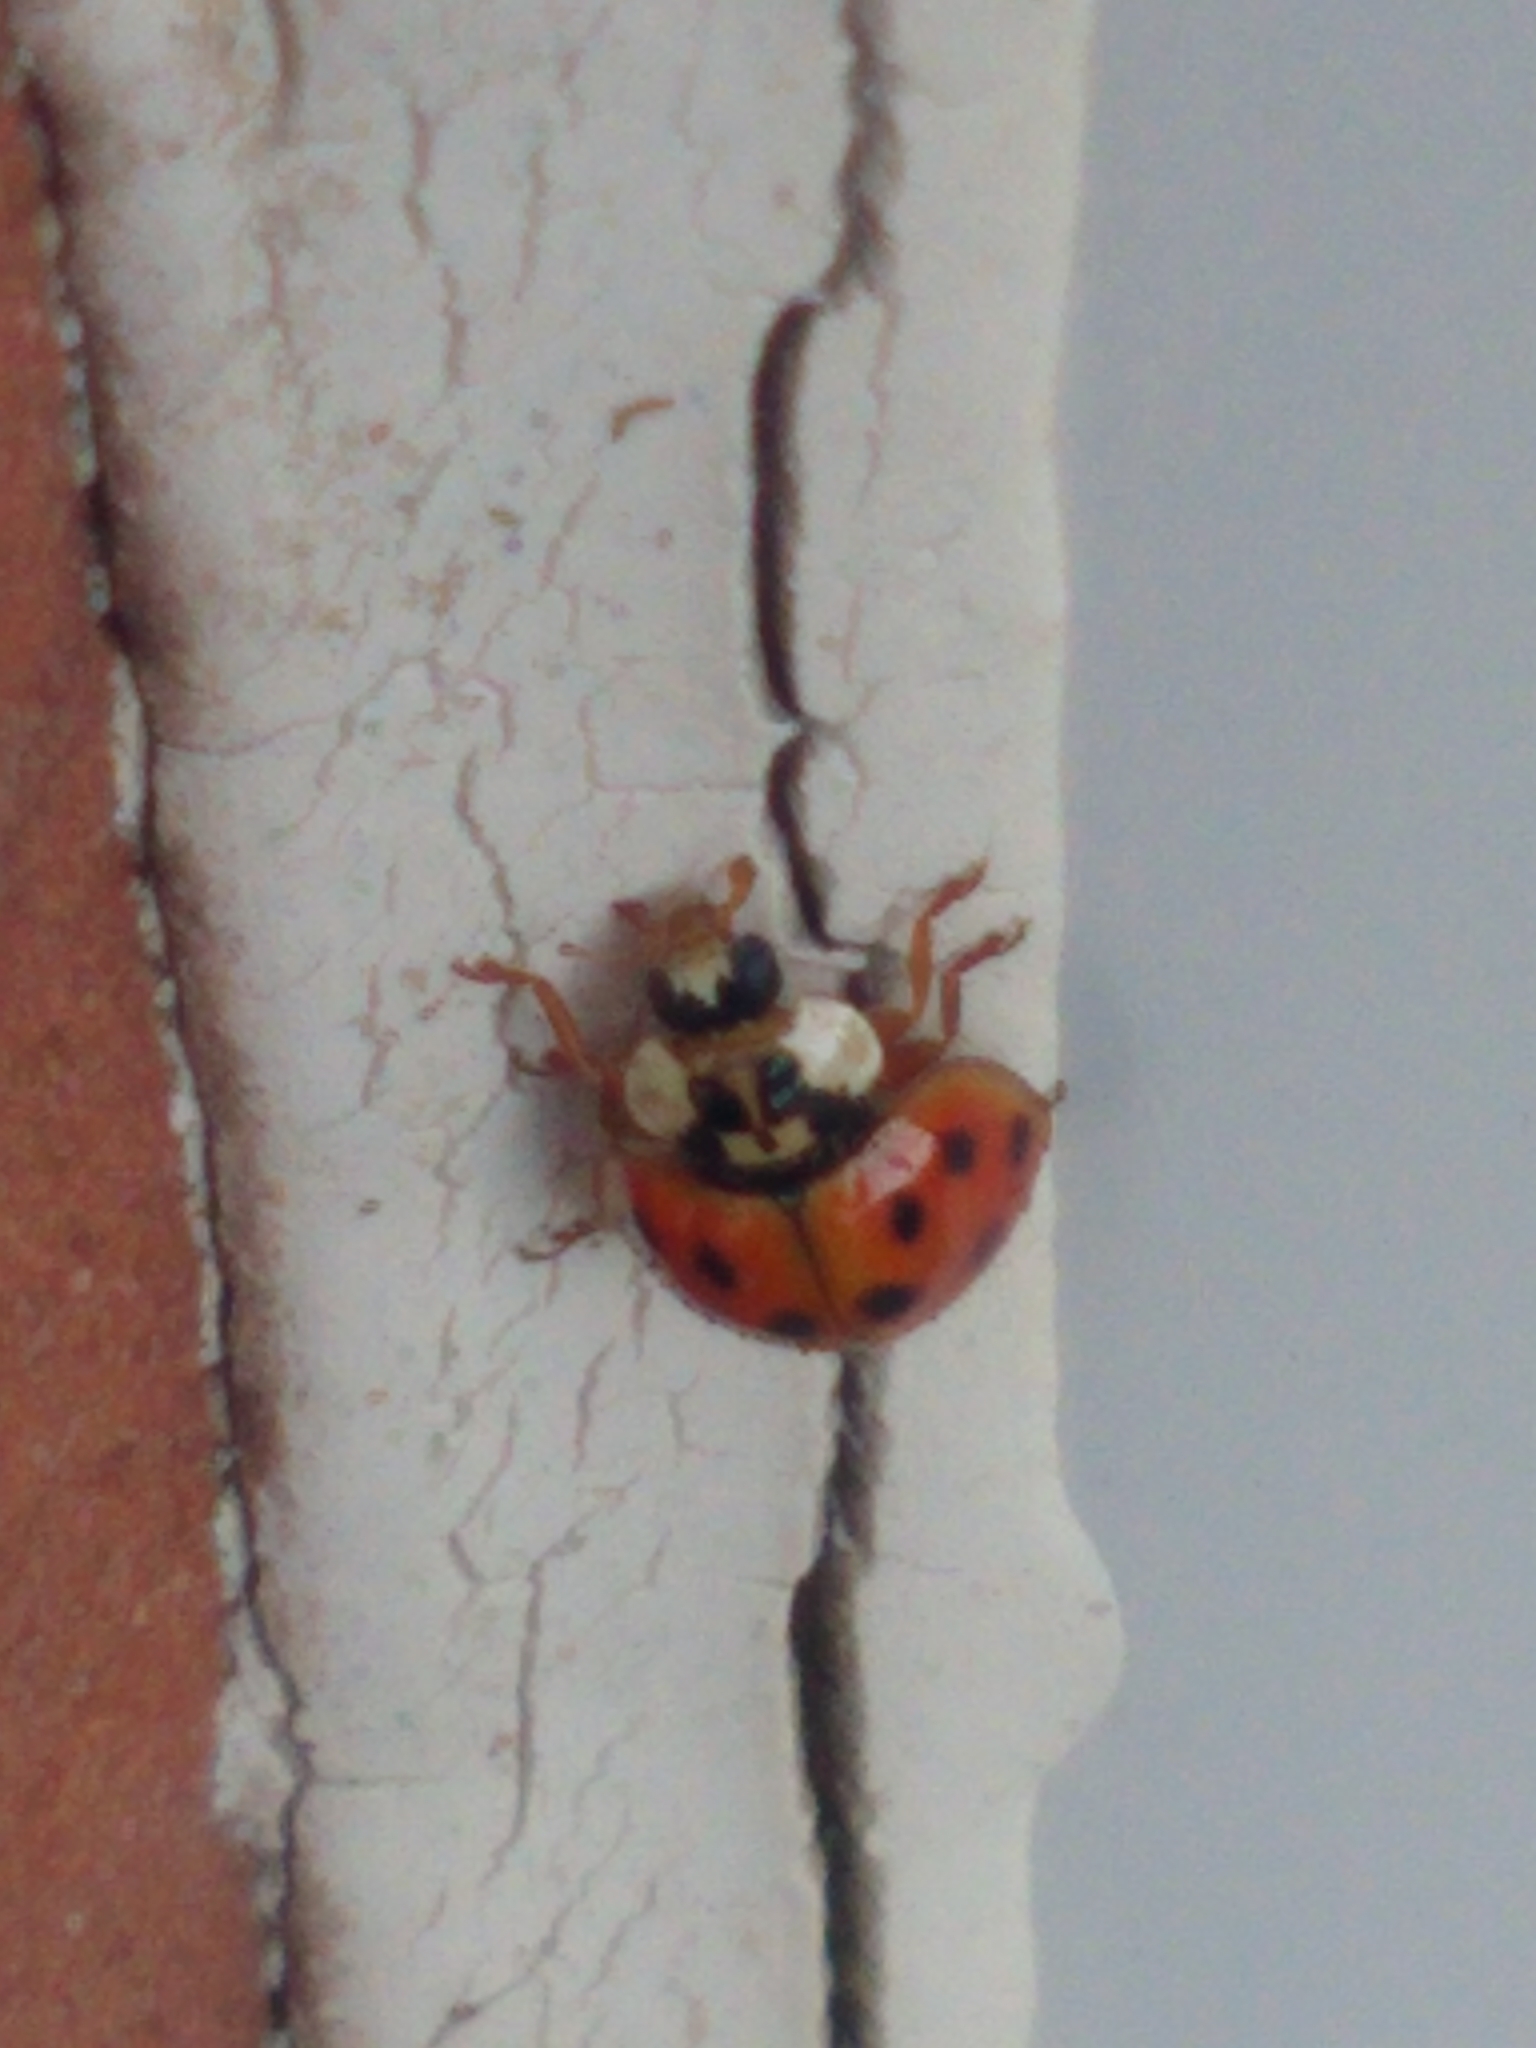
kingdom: Animalia
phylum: Arthropoda
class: Insecta
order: Coleoptera
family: Coccinellidae
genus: Harmonia
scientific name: Harmonia axyridis
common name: Harlequin ladybird
